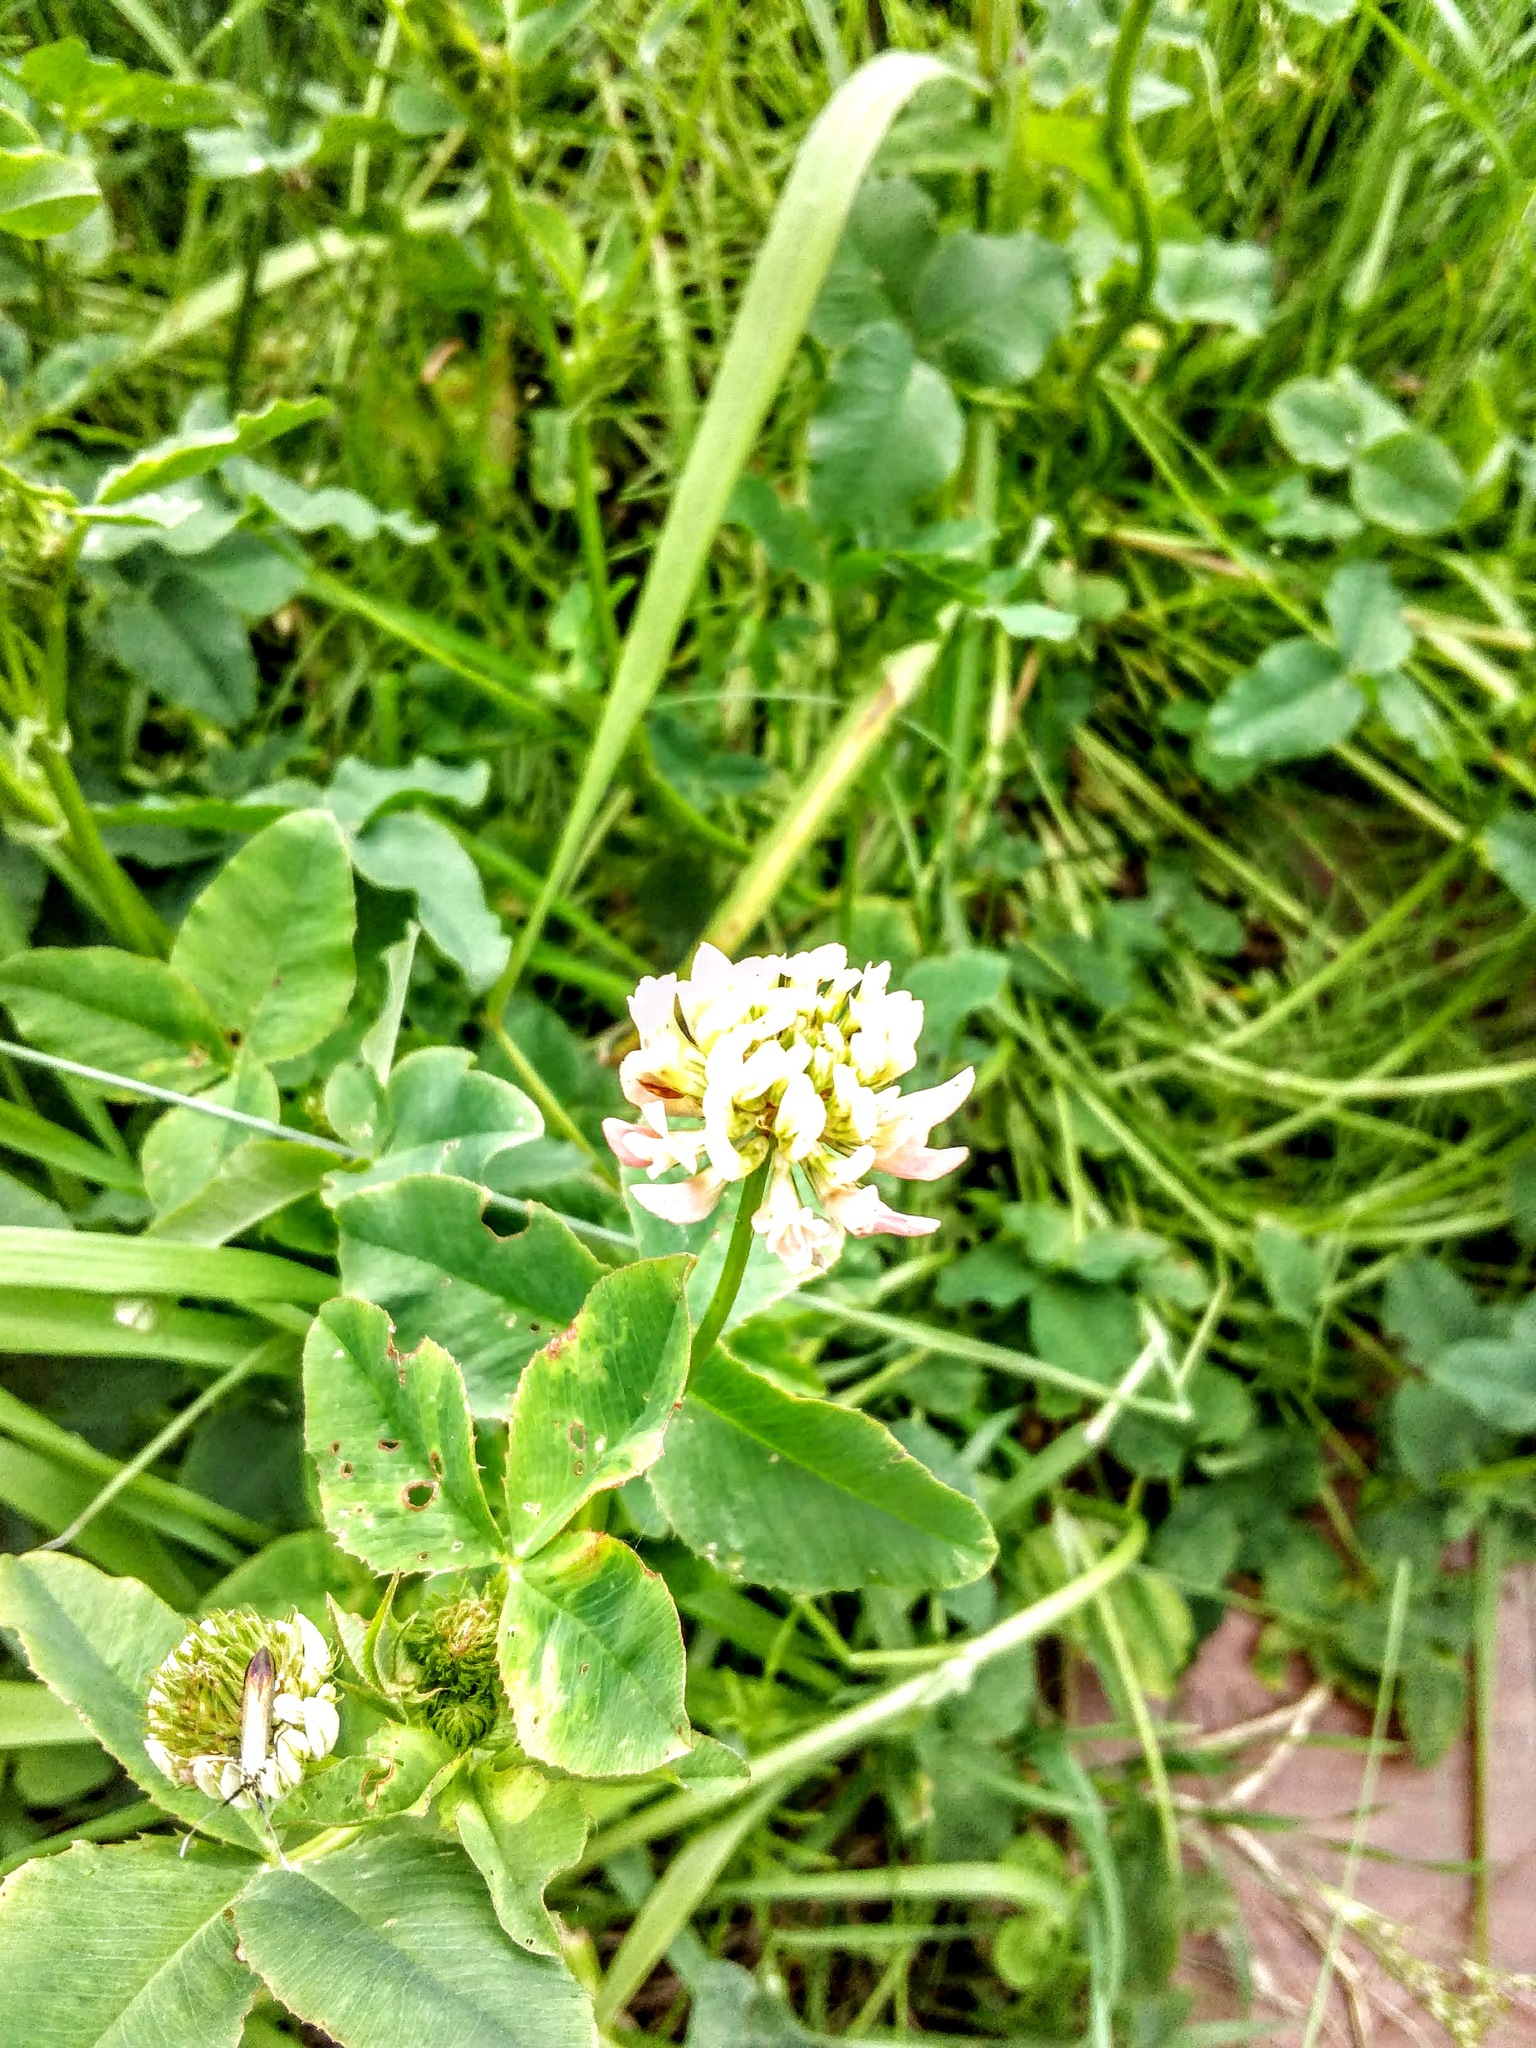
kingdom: Plantae
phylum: Tracheophyta
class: Magnoliopsida
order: Fabales
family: Fabaceae
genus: Trifolium
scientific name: Trifolium repens
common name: White clover
